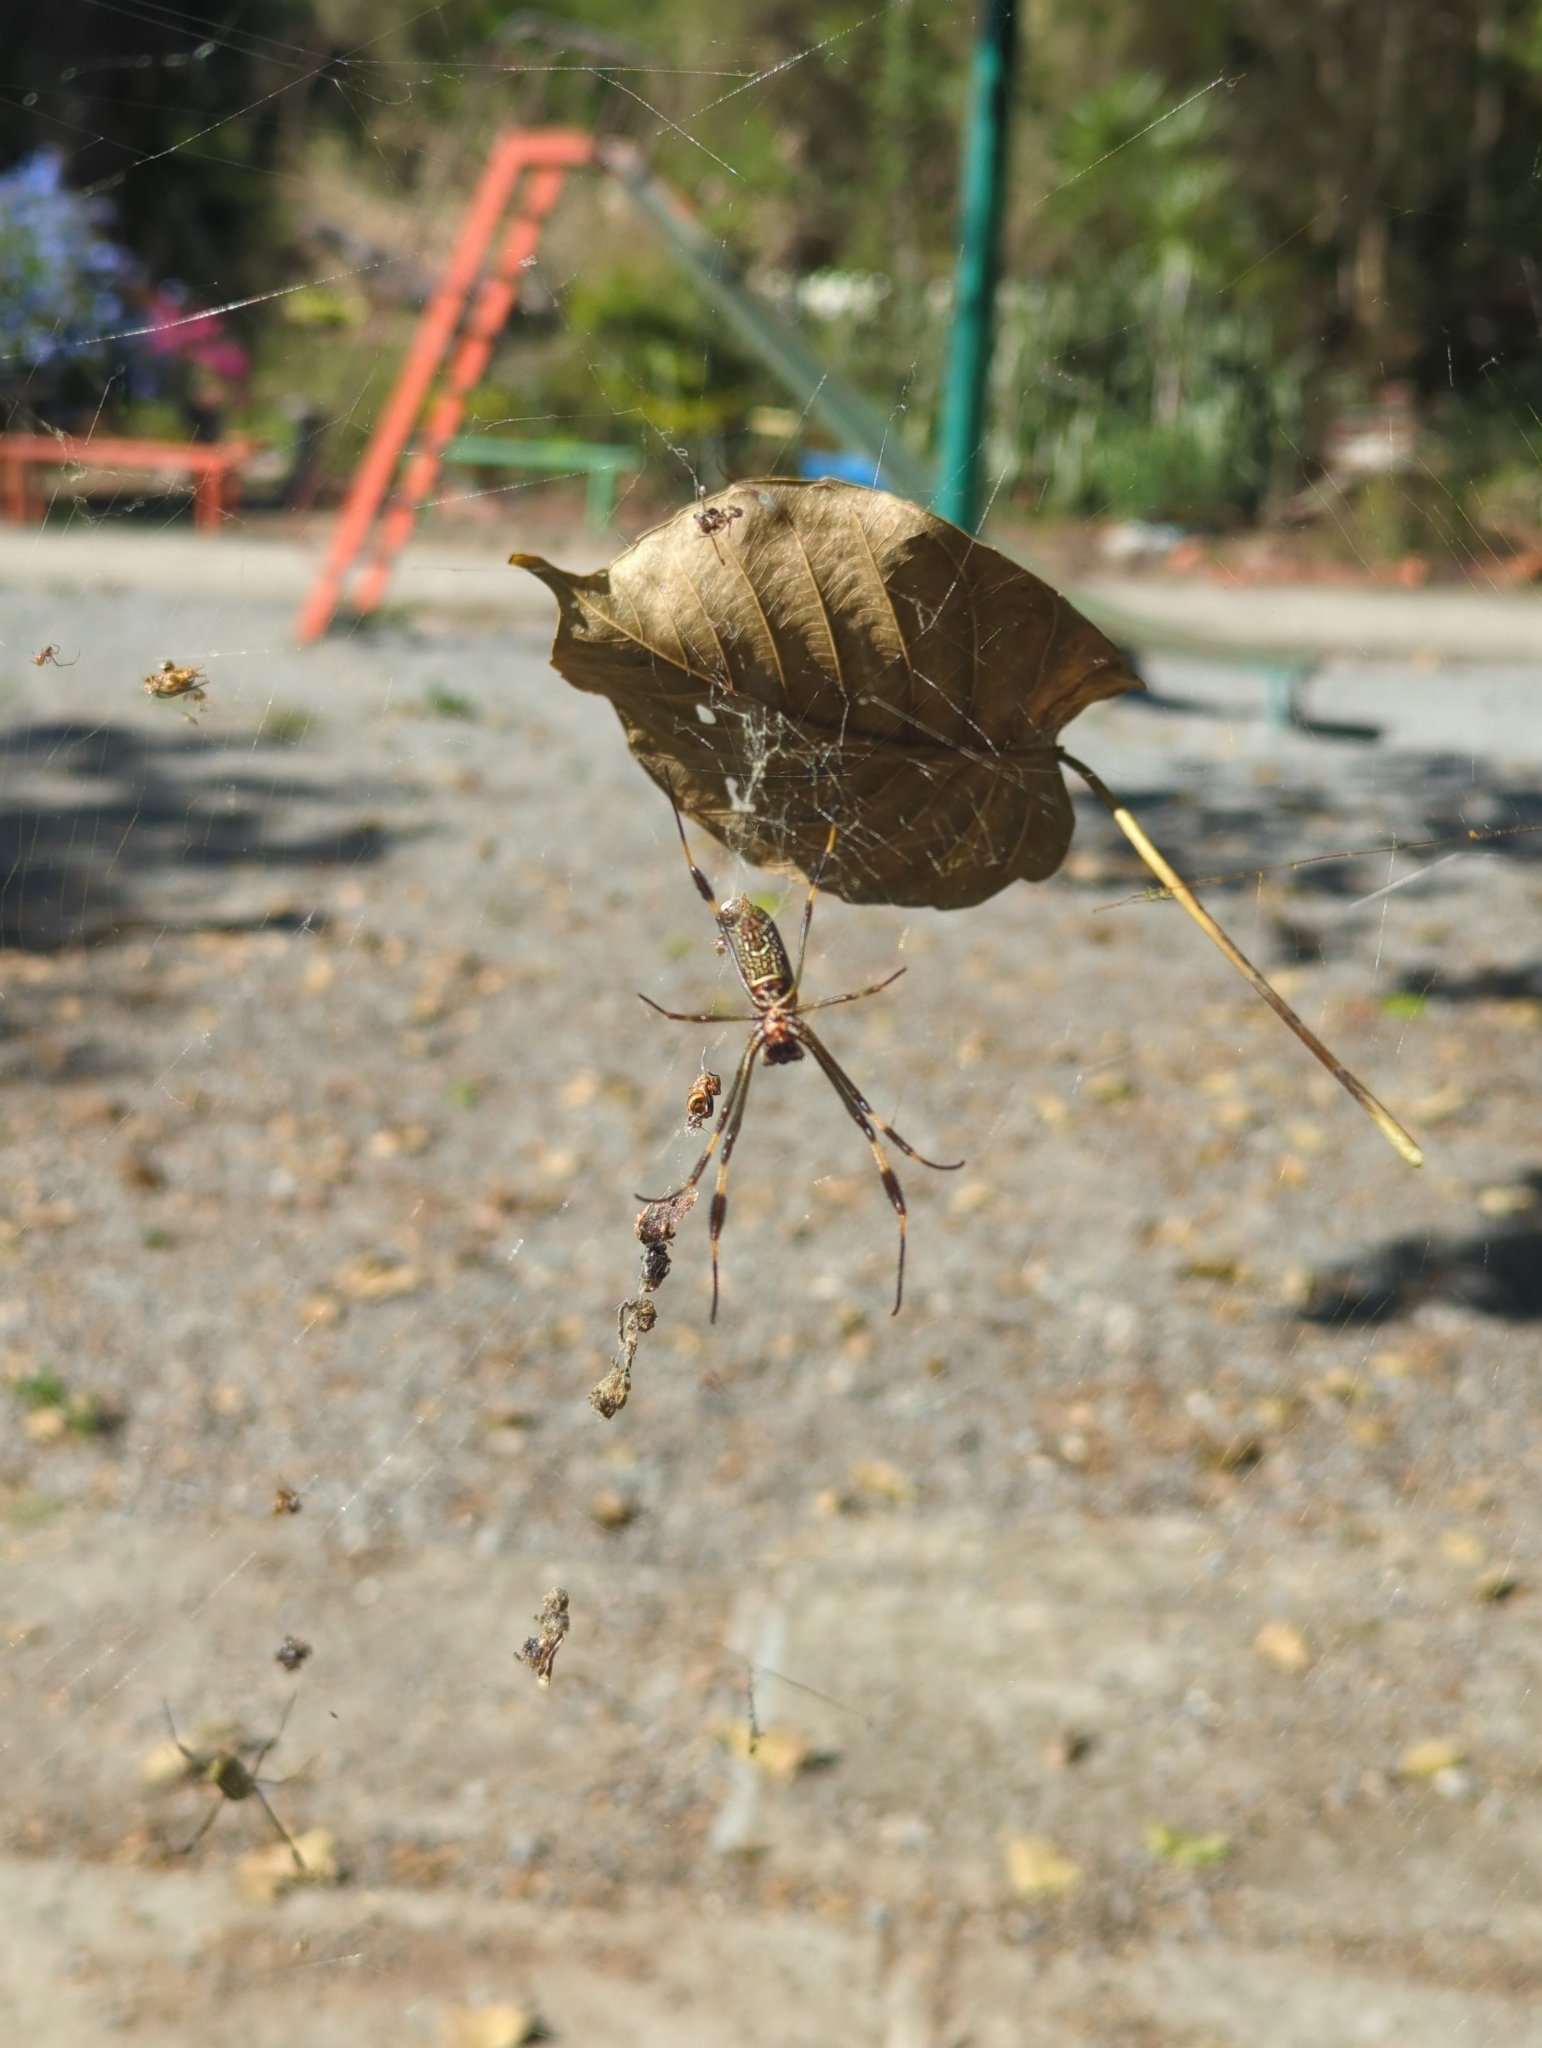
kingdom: Animalia
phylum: Arthropoda
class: Arachnida
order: Araneae
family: Araneidae
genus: Trichonephila
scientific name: Trichonephila clavipes
